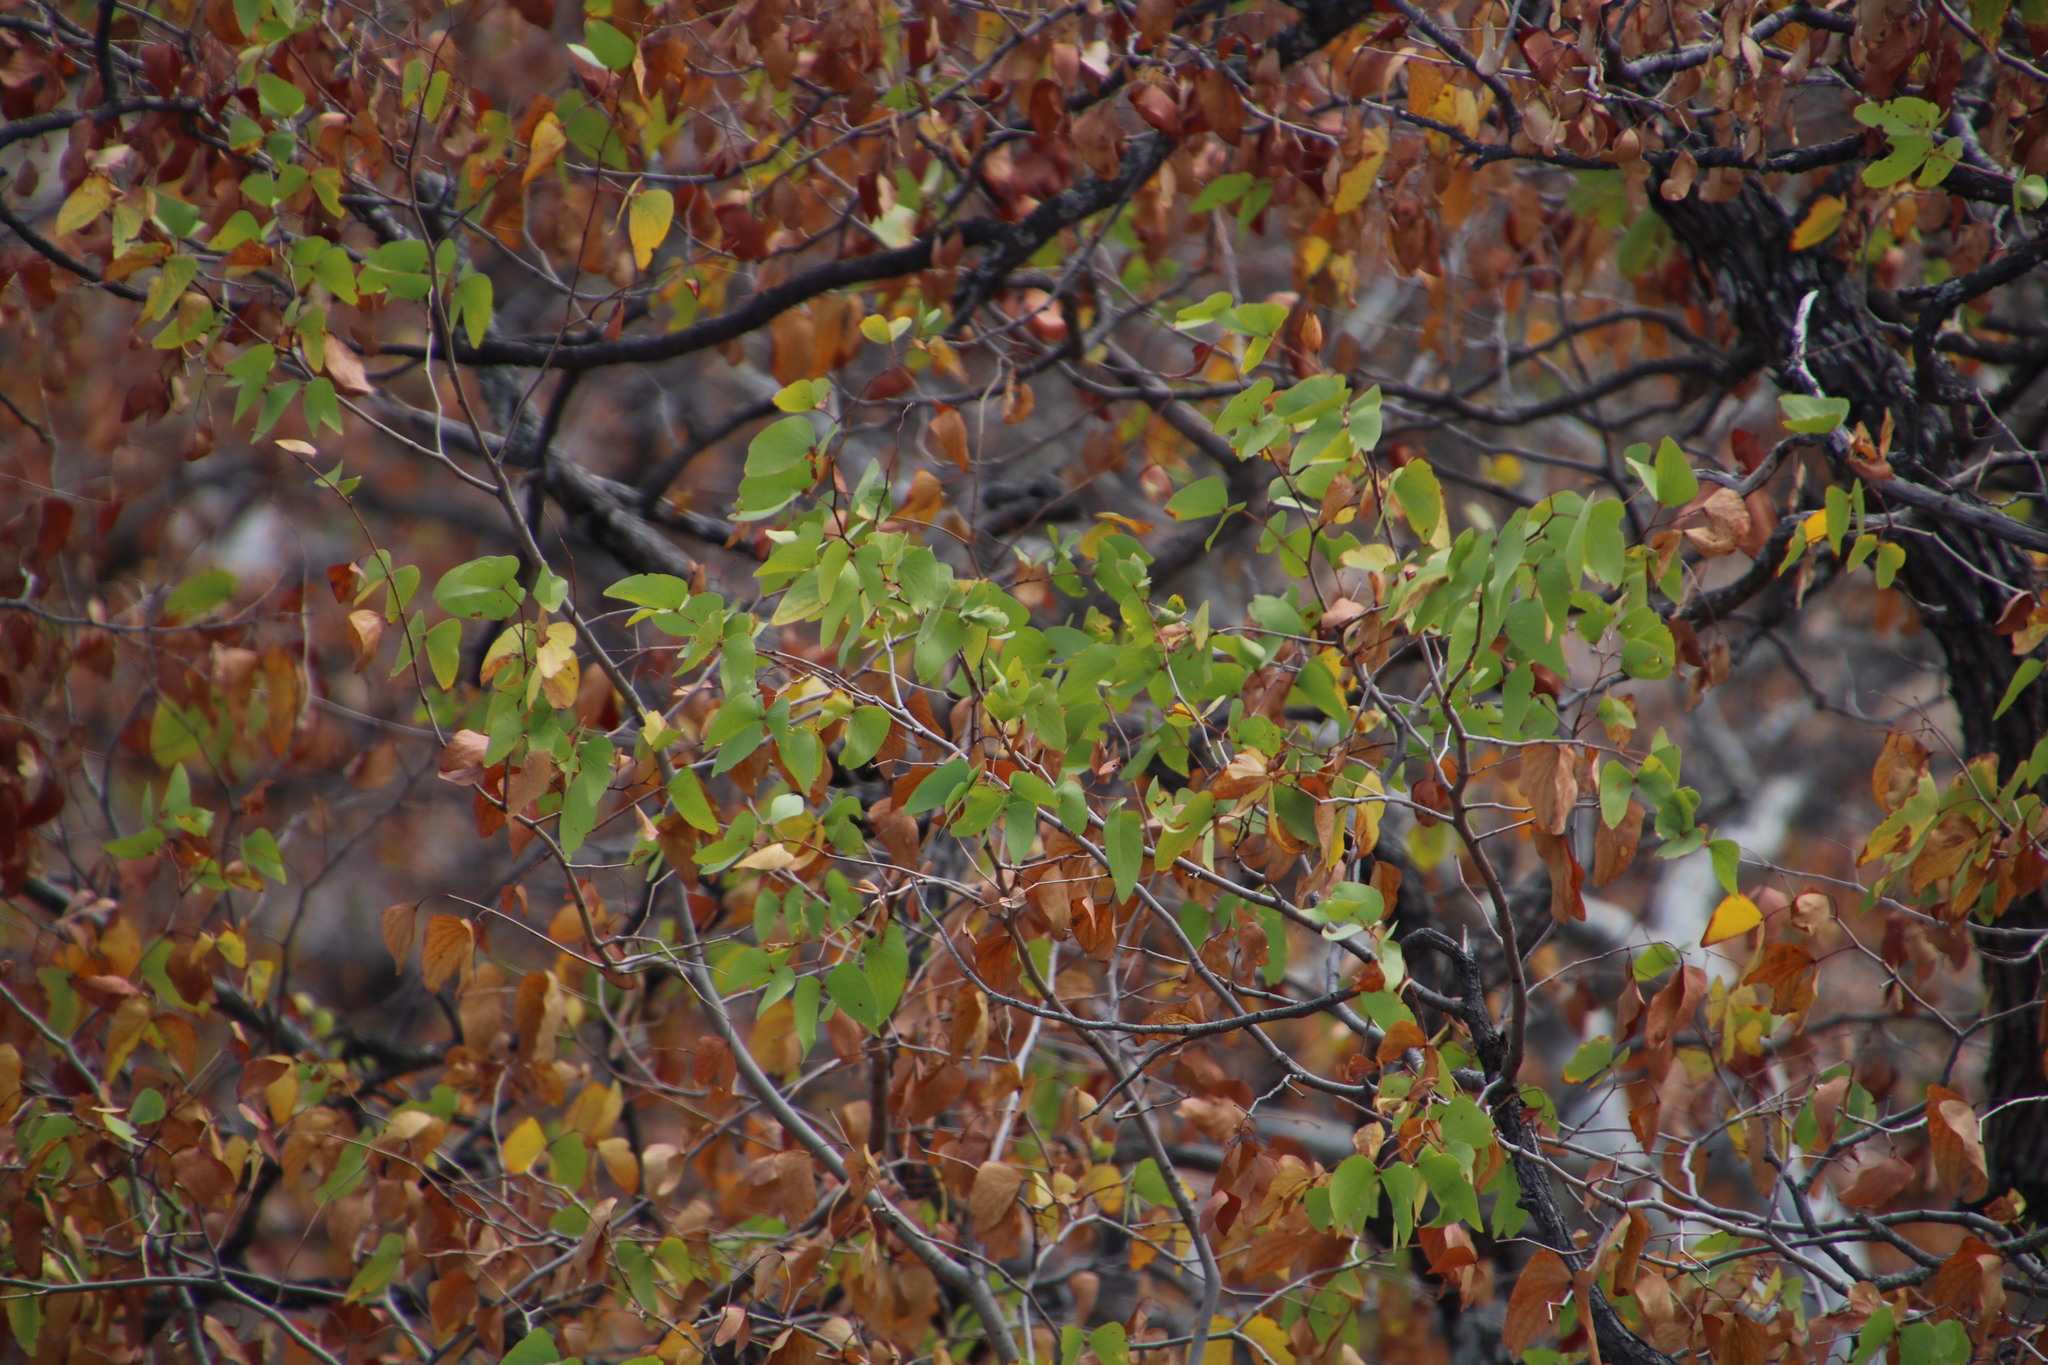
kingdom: Plantae
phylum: Tracheophyta
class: Magnoliopsida
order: Fabales
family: Fabaceae
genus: Colophospermum
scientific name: Colophospermum mopane
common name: Mopane
